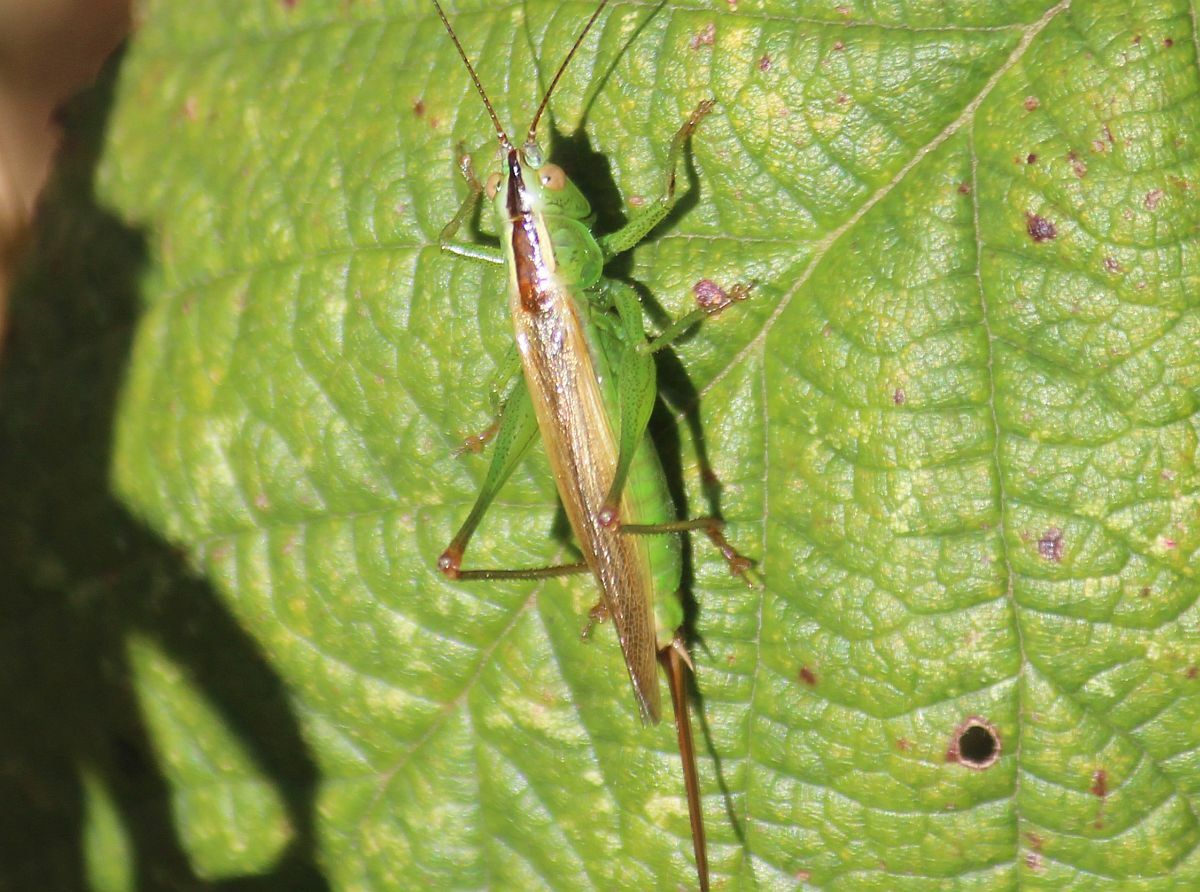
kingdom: Animalia
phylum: Arthropoda
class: Insecta
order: Orthoptera
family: Tettigoniidae
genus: Conocephalus
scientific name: Conocephalus fuscus
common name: Long-winged conehead
